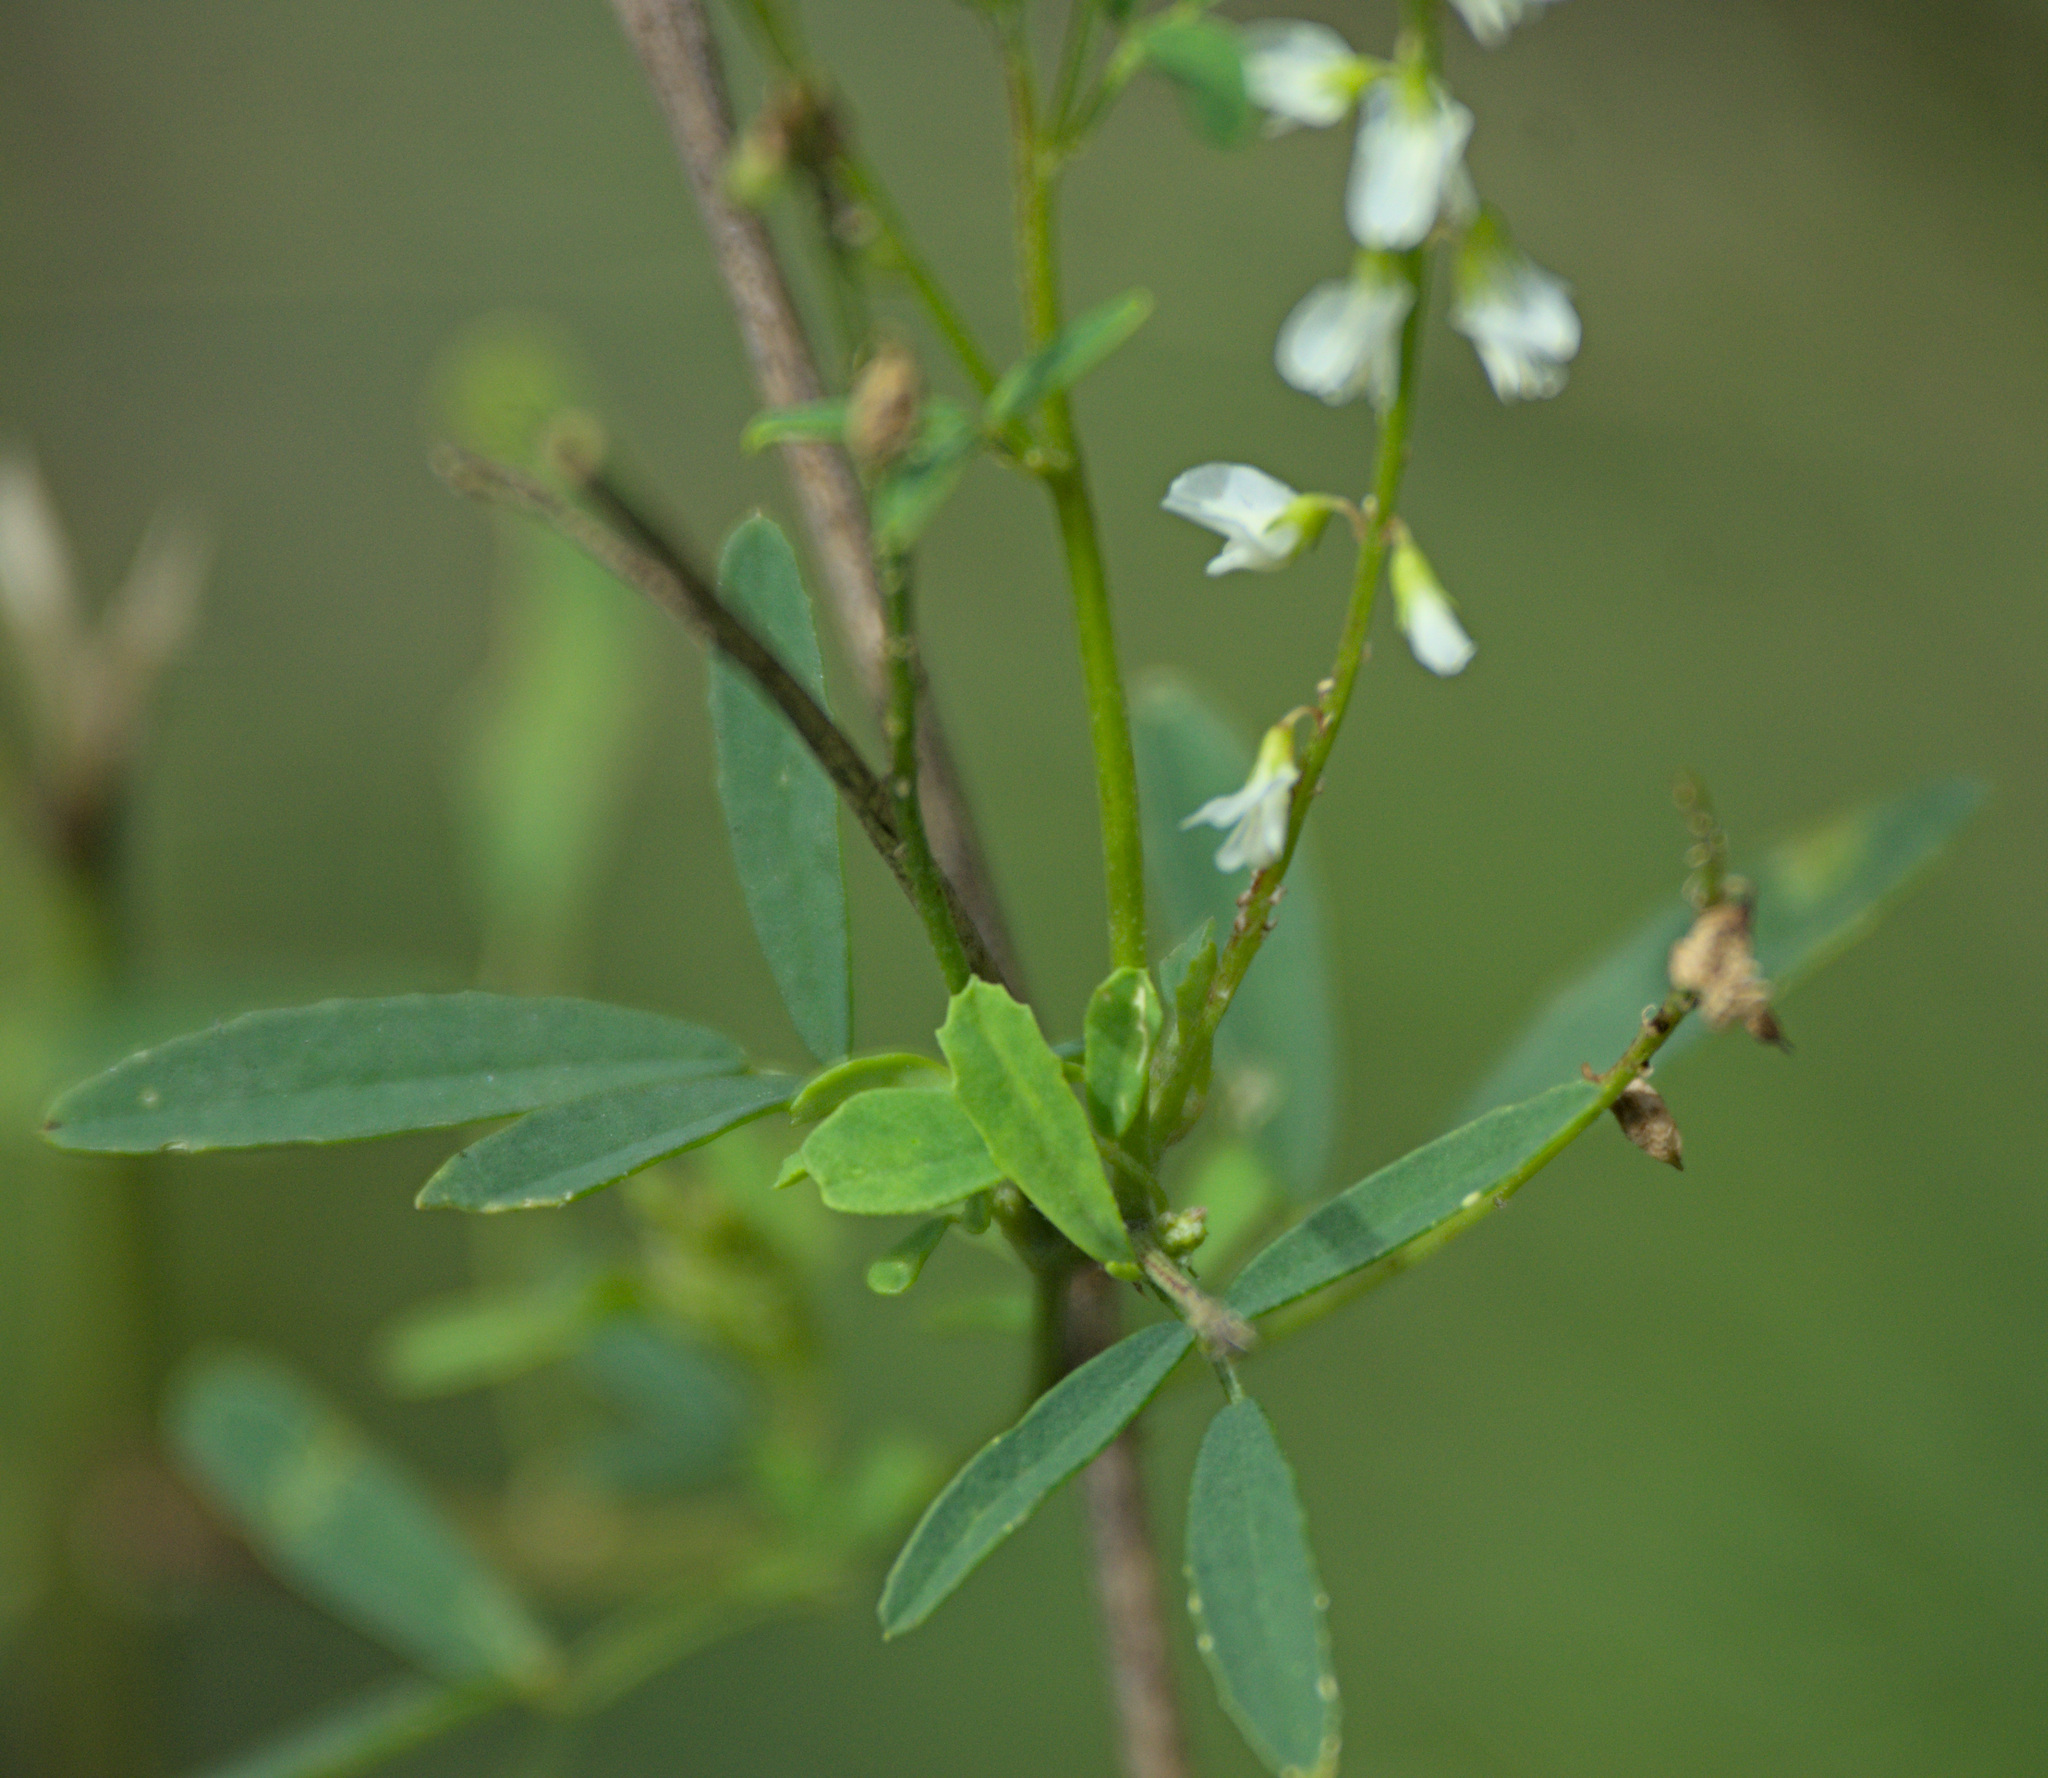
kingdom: Plantae
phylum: Tracheophyta
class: Magnoliopsida
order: Fabales
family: Fabaceae
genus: Melilotus
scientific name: Melilotus albus
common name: White melilot
